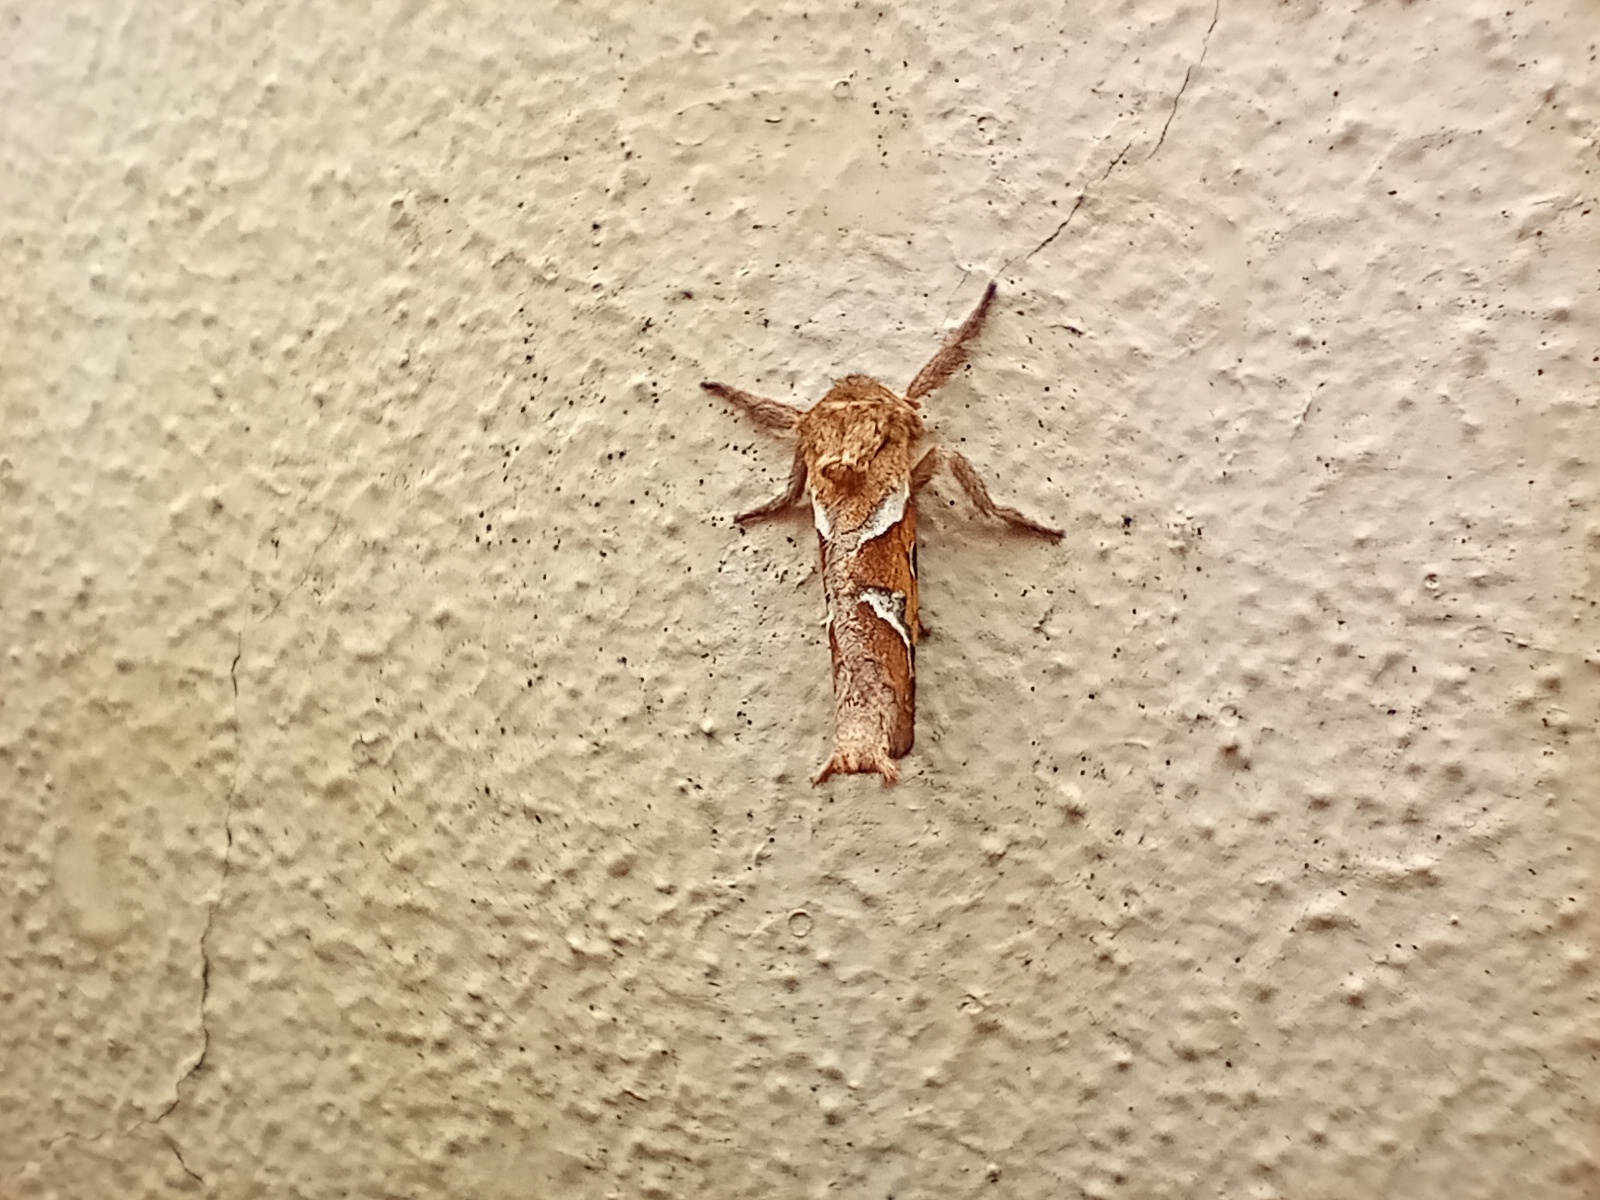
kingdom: Animalia
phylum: Arthropoda
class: Insecta
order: Lepidoptera
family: Hepialidae
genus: Triodia
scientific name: Triodia sylvina
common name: Orange swift
